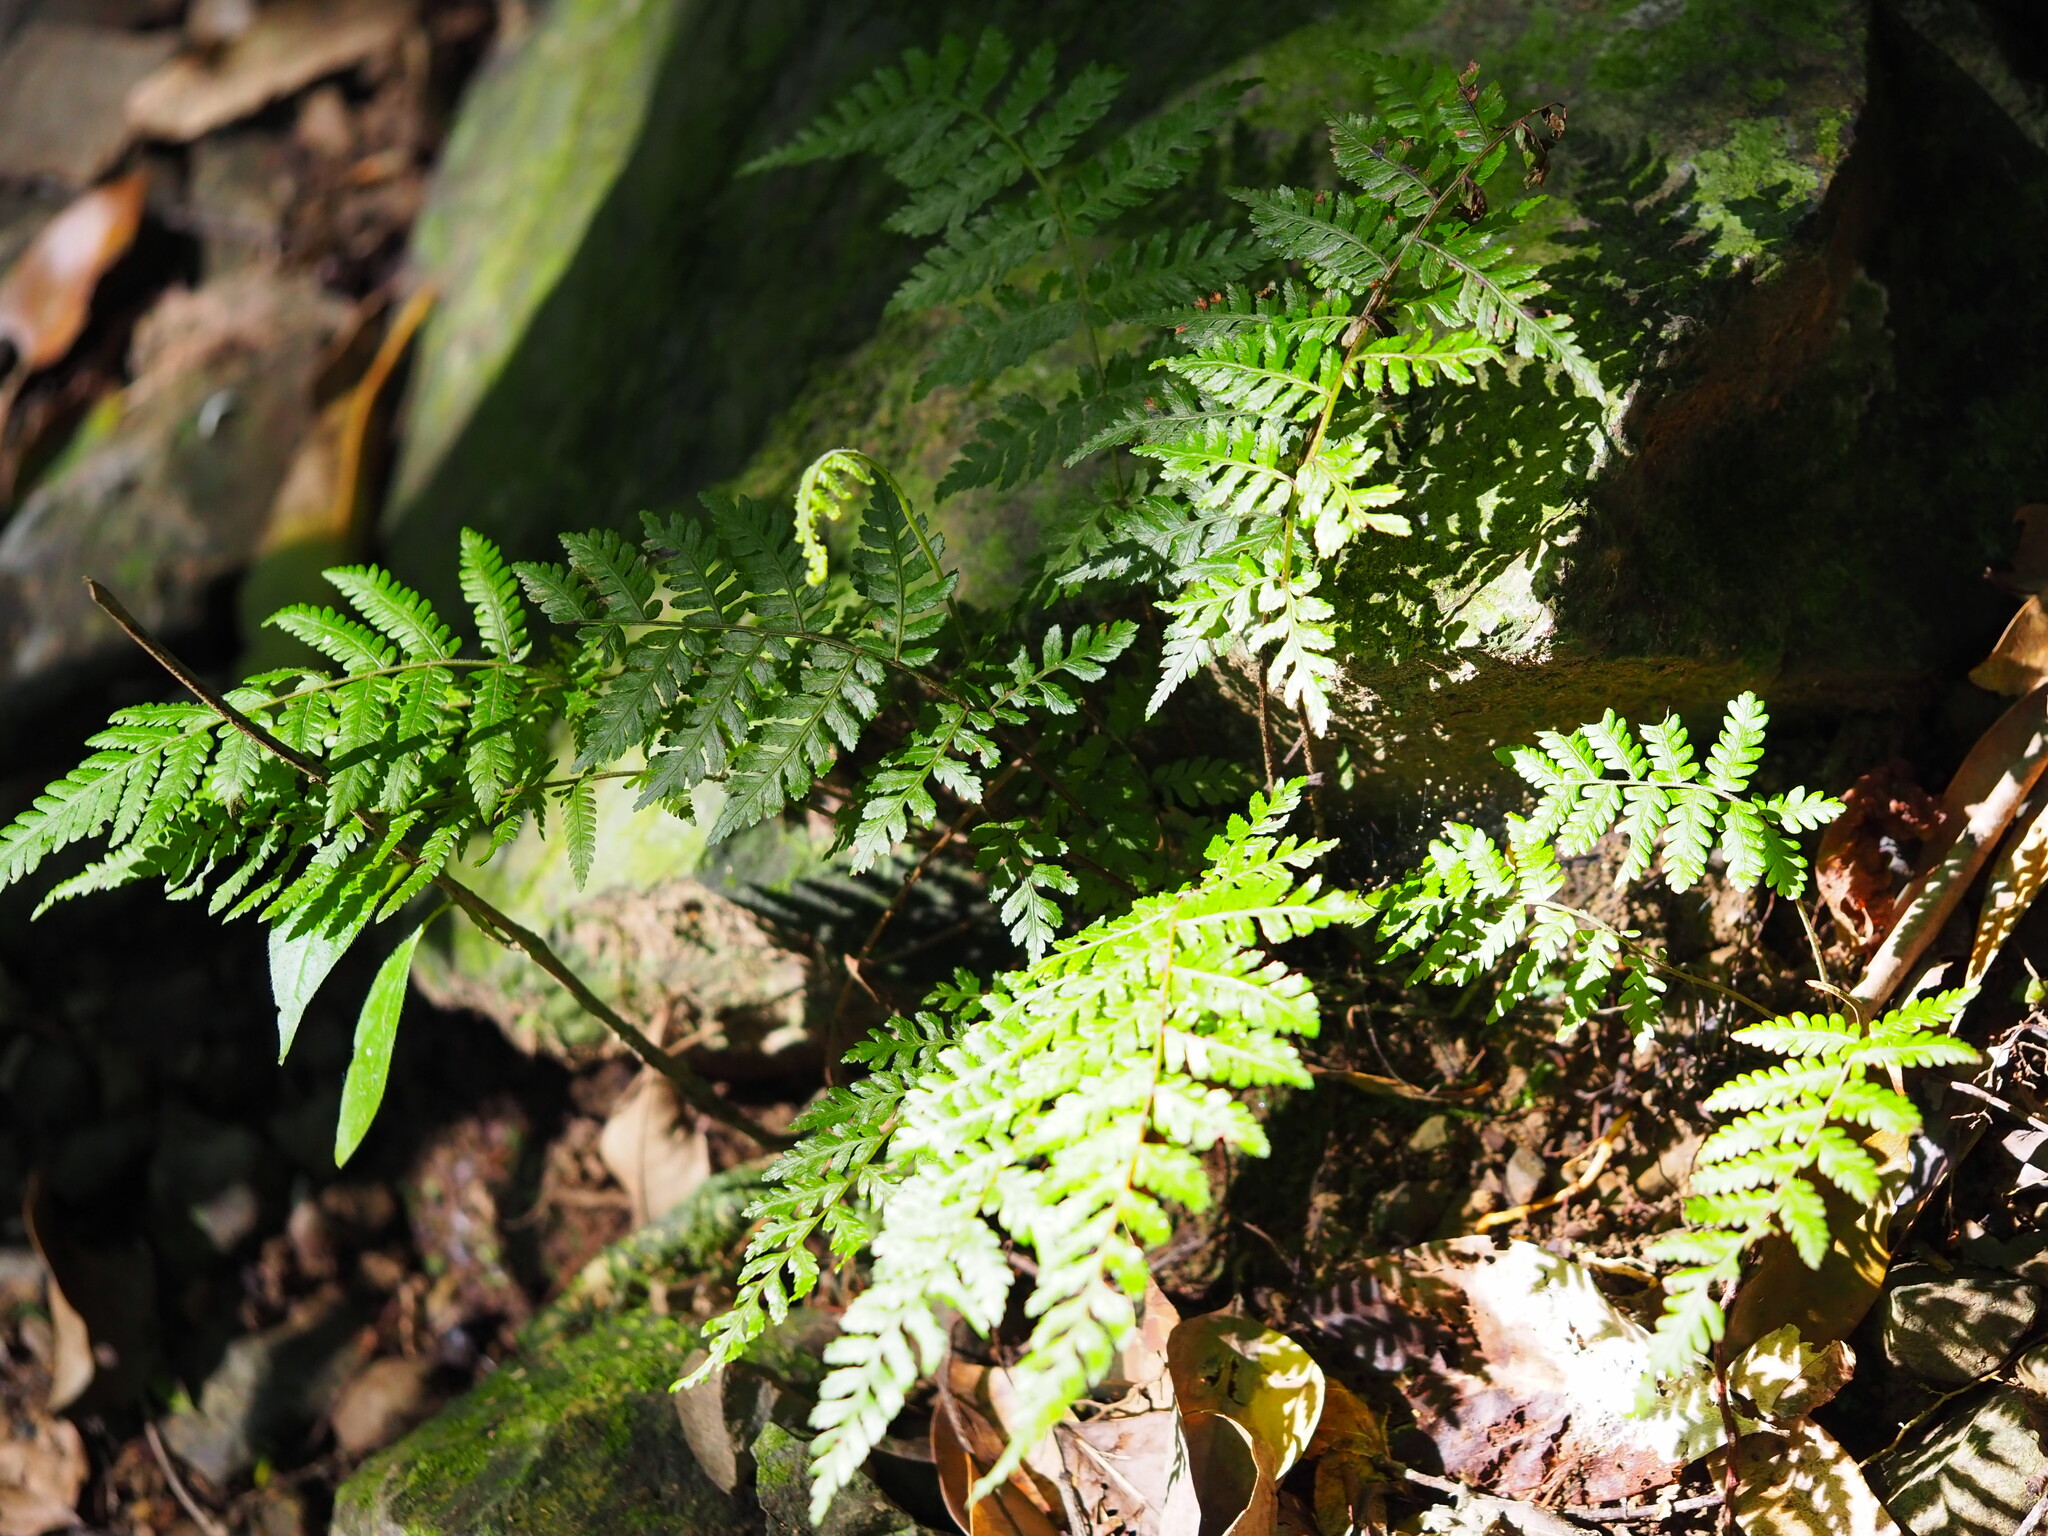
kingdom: Plantae
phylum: Tracheophyta
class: Polypodiopsida
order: Cyatheales
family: Cyatheaceae
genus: Alsophila
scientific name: Alsophila spinulosa
